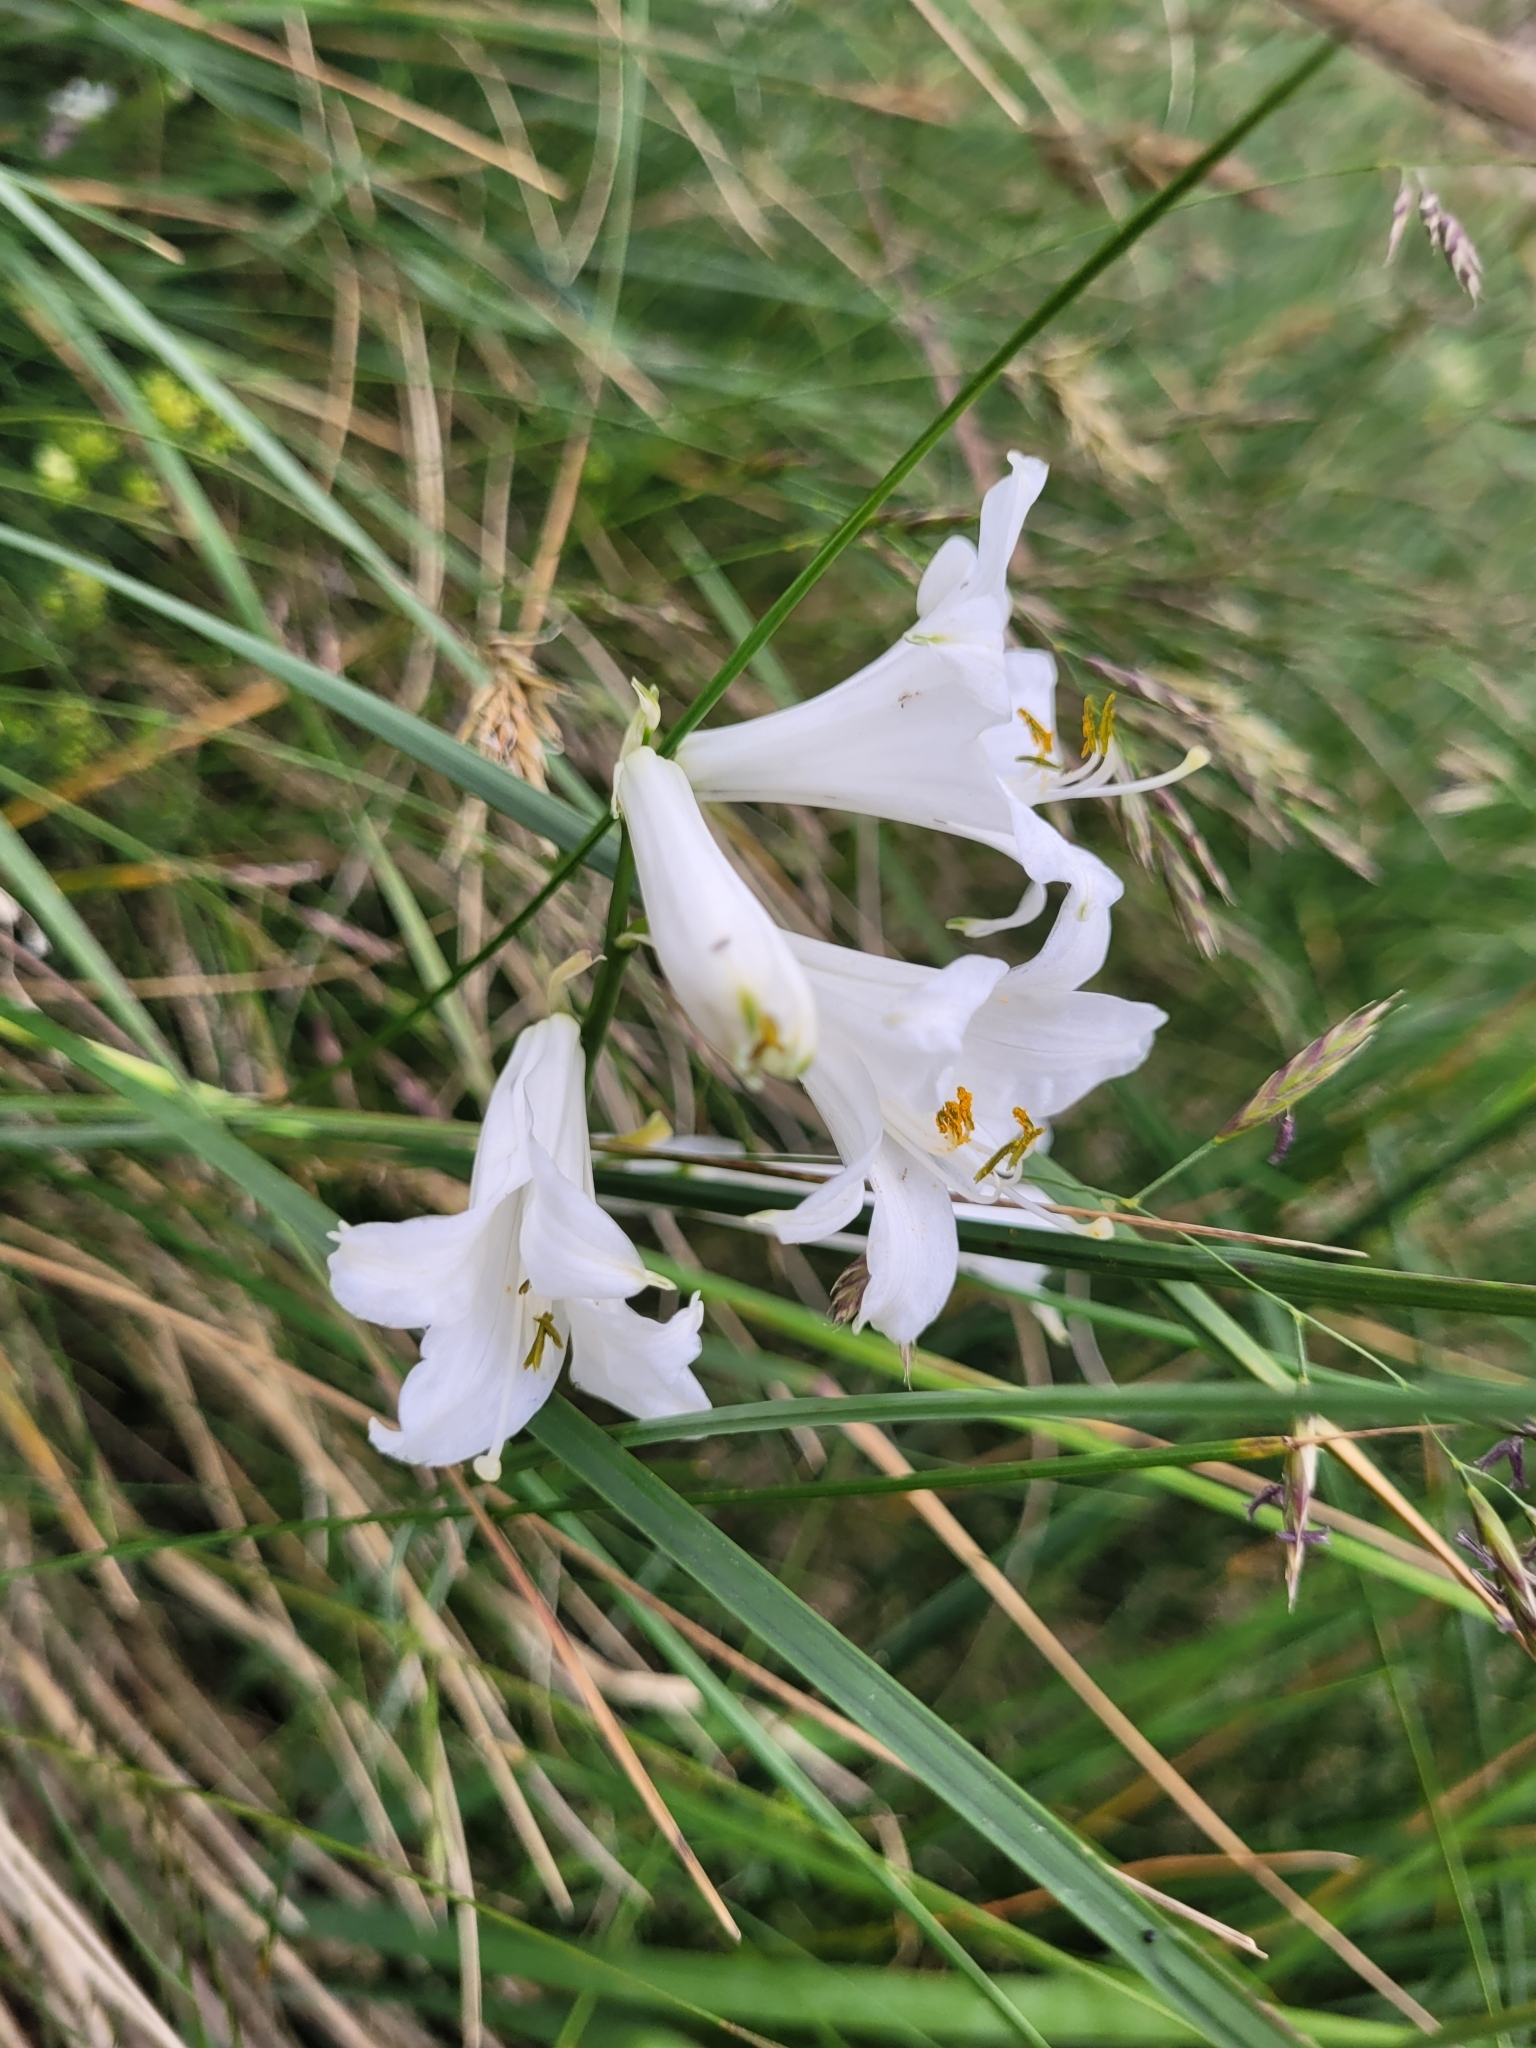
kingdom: Plantae
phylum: Tracheophyta
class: Liliopsida
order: Asparagales
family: Asparagaceae
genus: Paradisea
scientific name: Paradisea liliastrum
